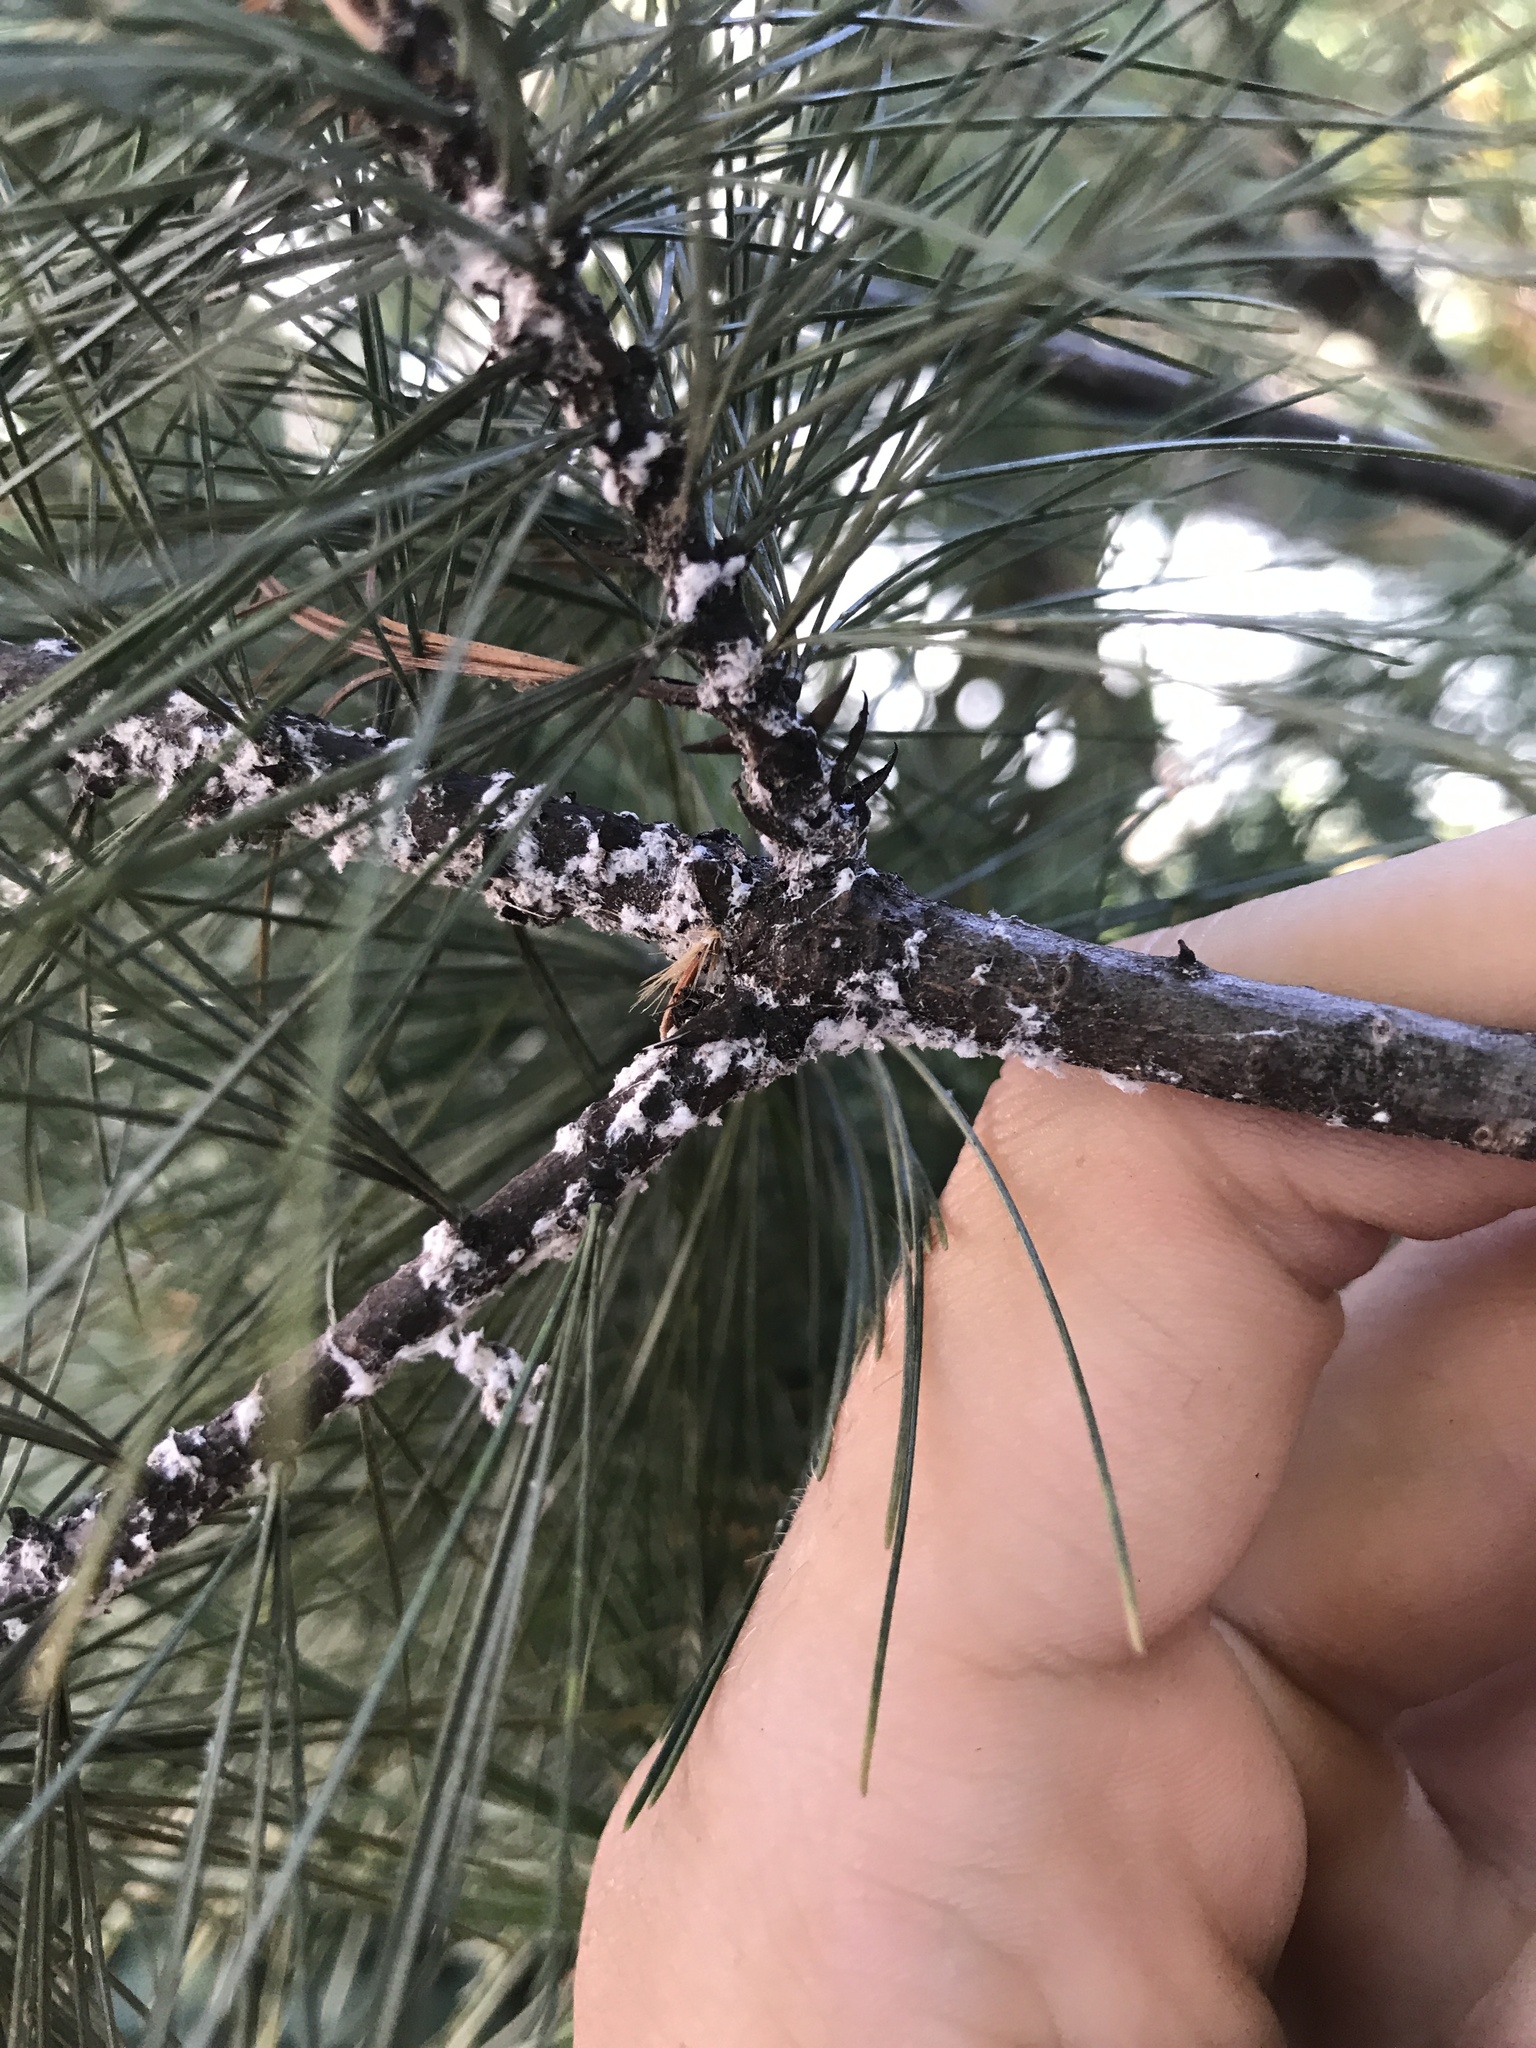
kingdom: Animalia
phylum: Arthropoda
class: Insecta
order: Hemiptera
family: Adelgidae
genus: Pineus
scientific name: Pineus strobi
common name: Pine bark adelgid
